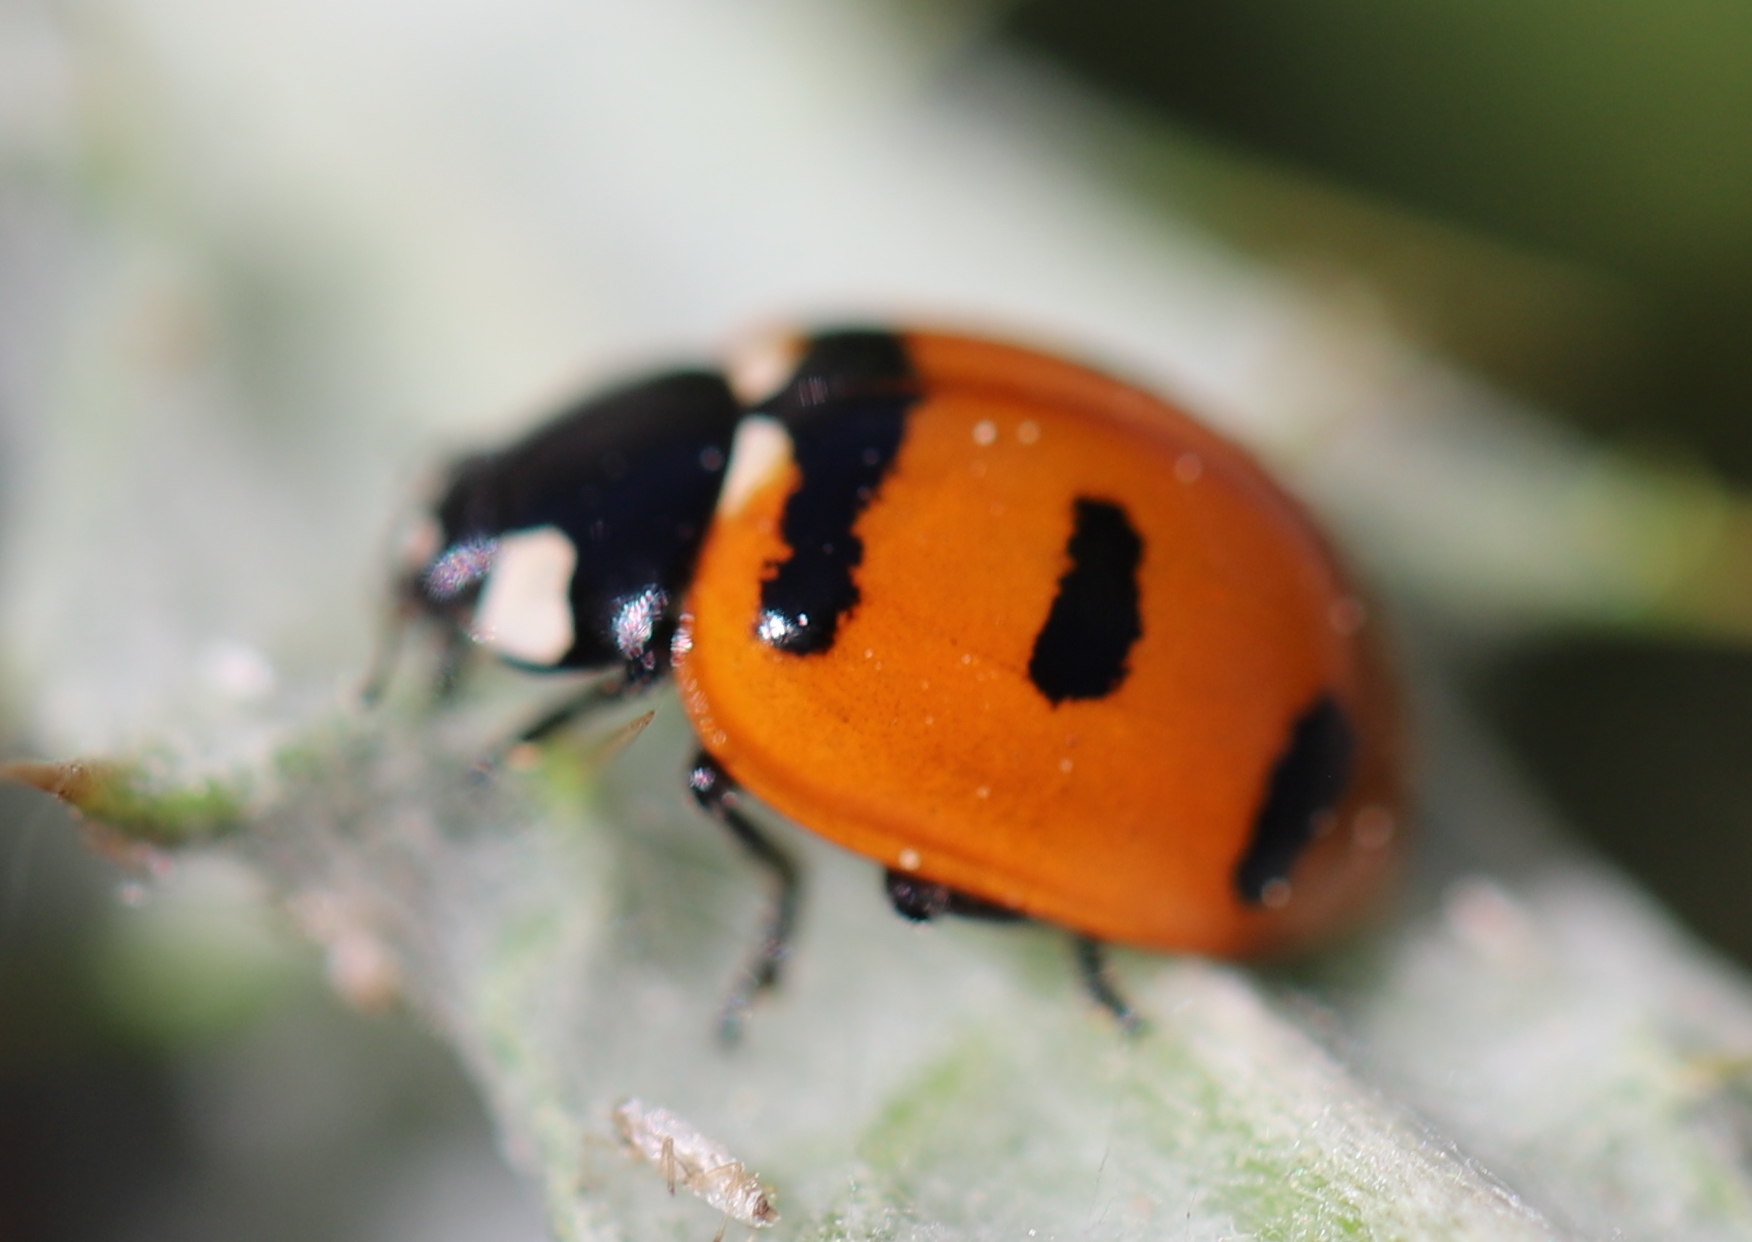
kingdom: Animalia
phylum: Arthropoda
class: Insecta
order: Coleoptera
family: Coccinellidae
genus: Coccinella
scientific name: Coccinella transversoguttata
